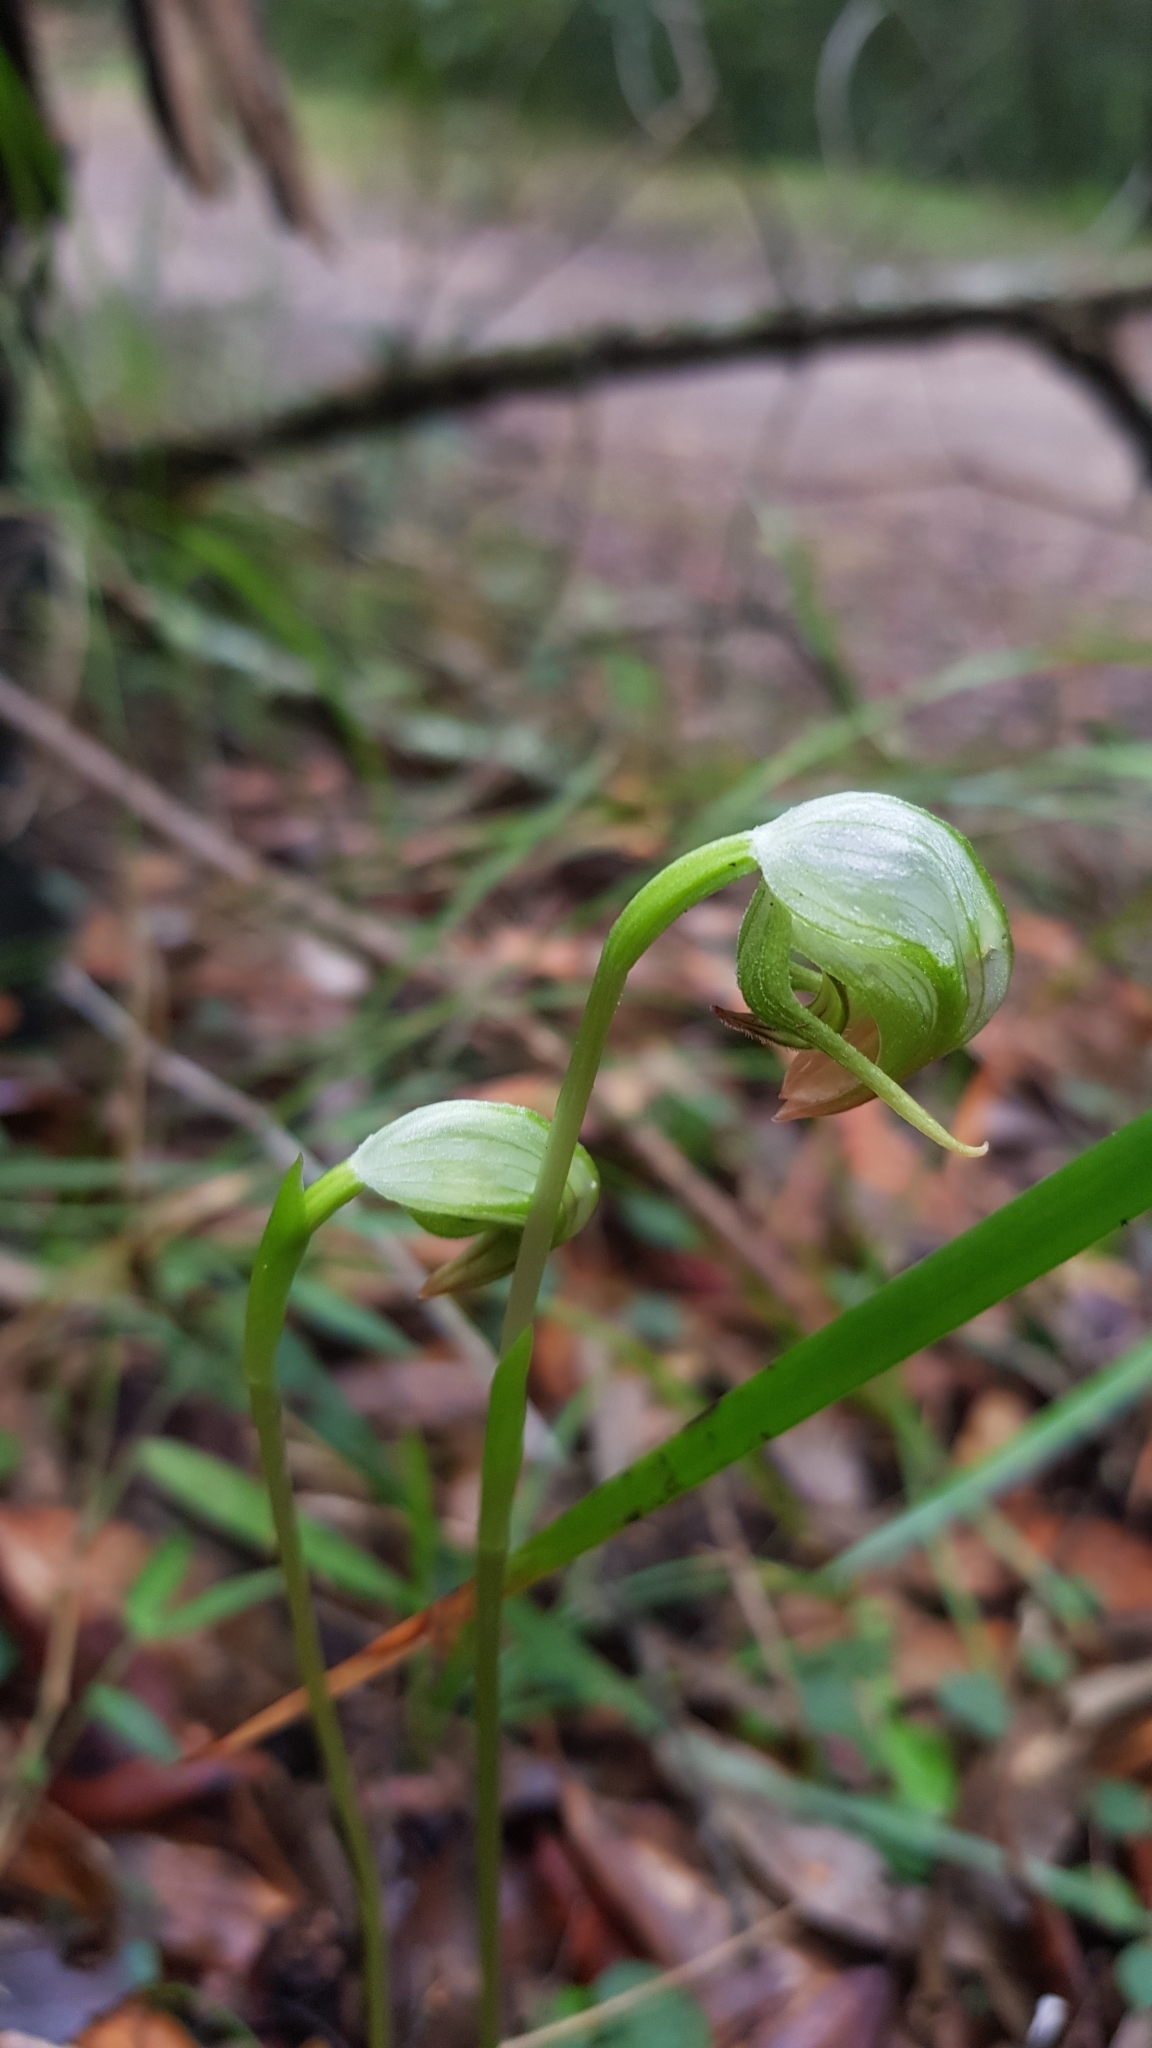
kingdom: Plantae
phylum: Tracheophyta
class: Liliopsida
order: Asparagales
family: Orchidaceae
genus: Pterostylis
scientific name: Pterostylis nutans
